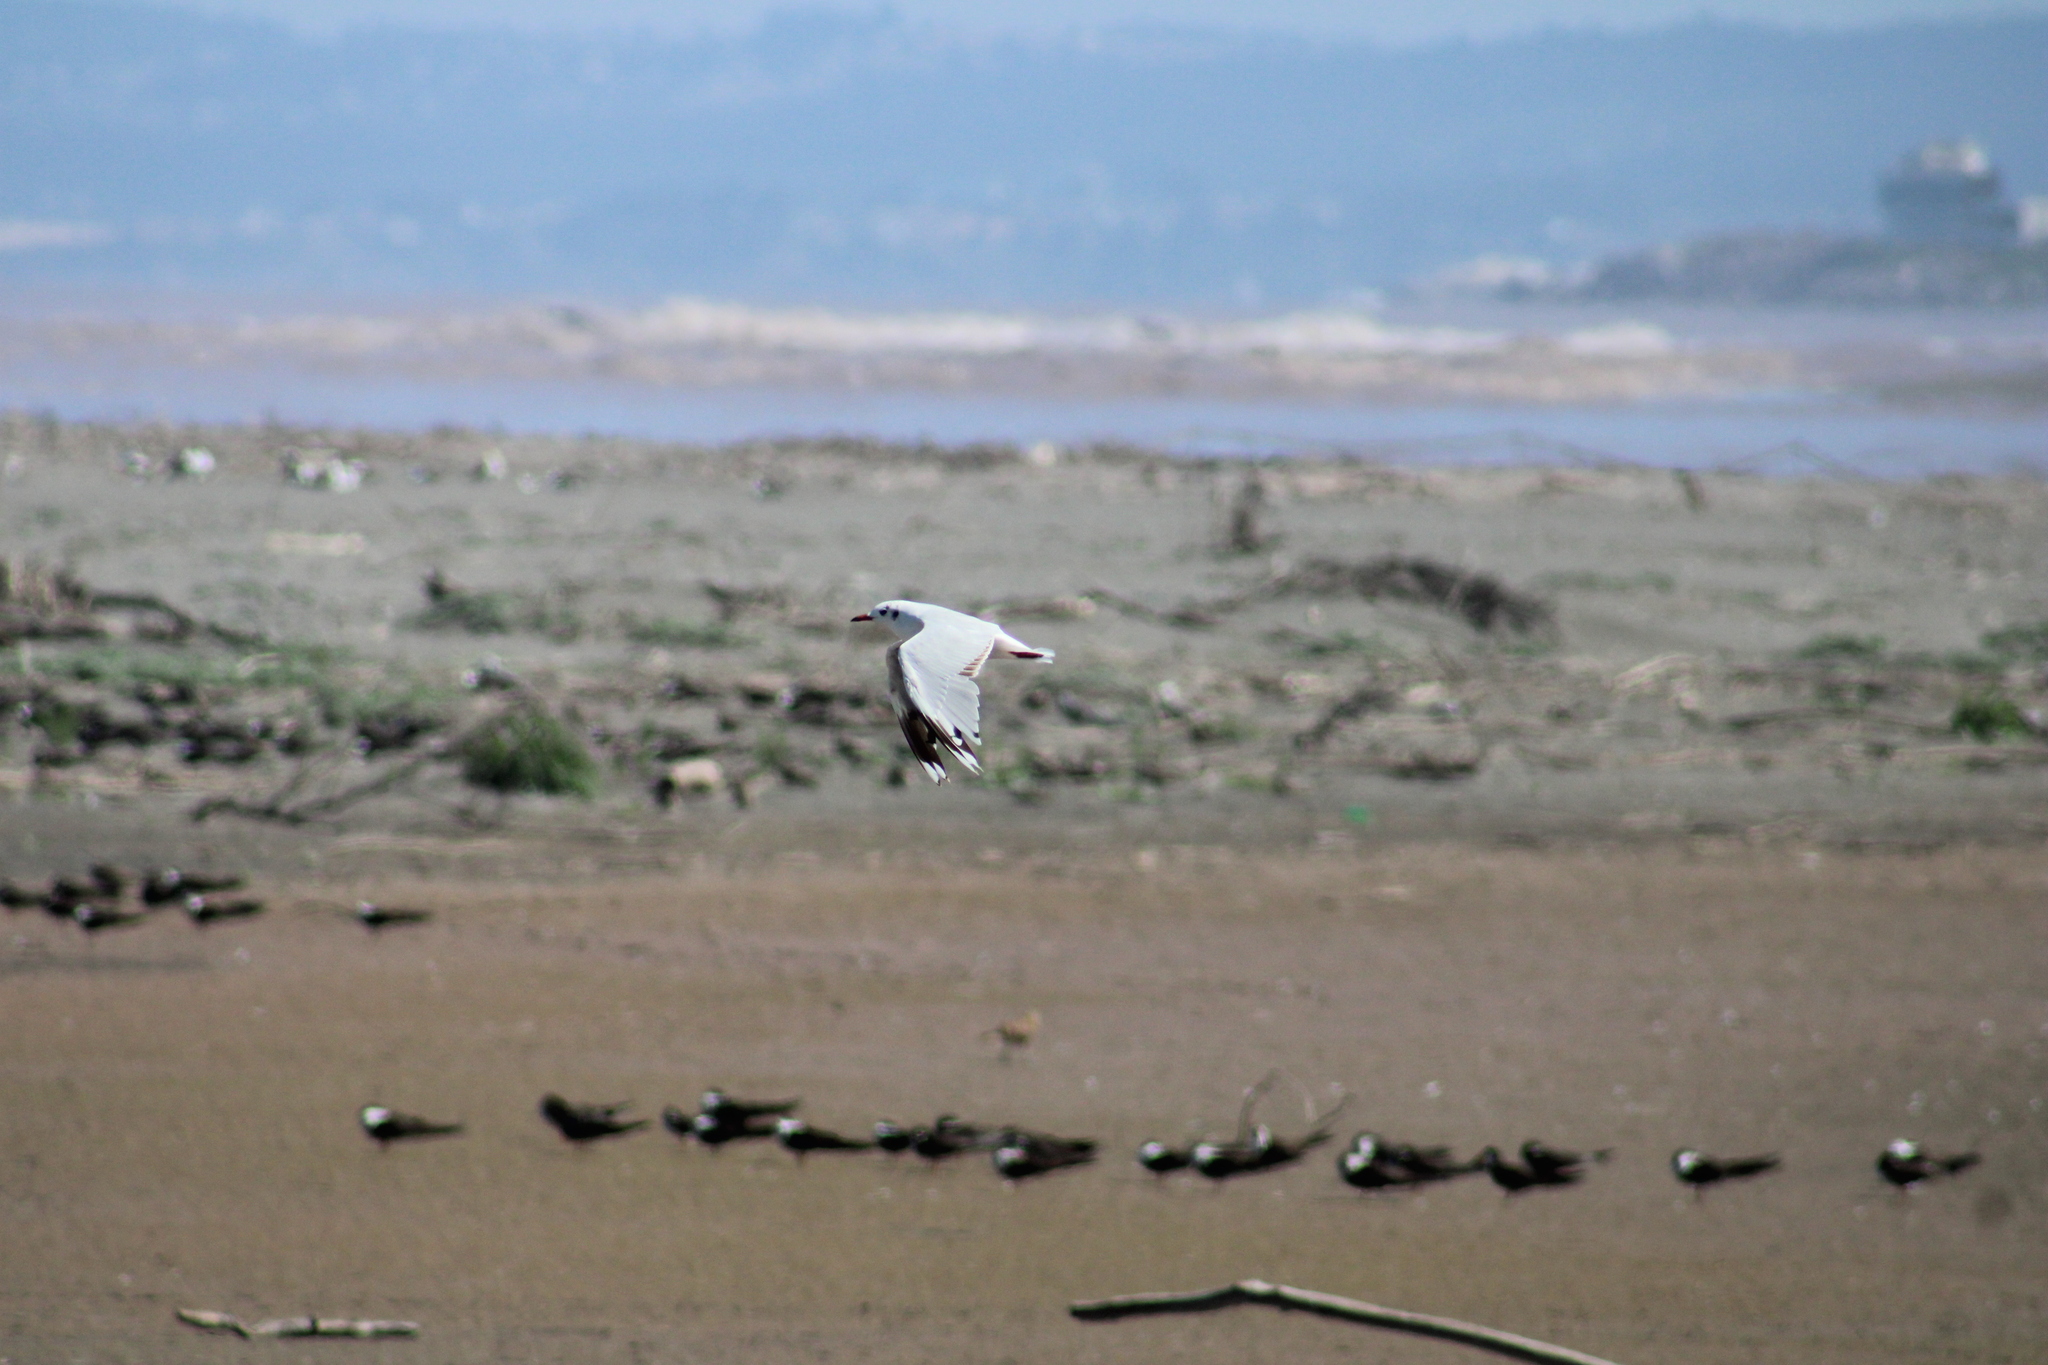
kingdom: Animalia
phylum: Chordata
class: Aves
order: Charadriiformes
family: Laridae
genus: Chroicocephalus
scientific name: Chroicocephalus maculipennis
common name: Brown-hooded gull
